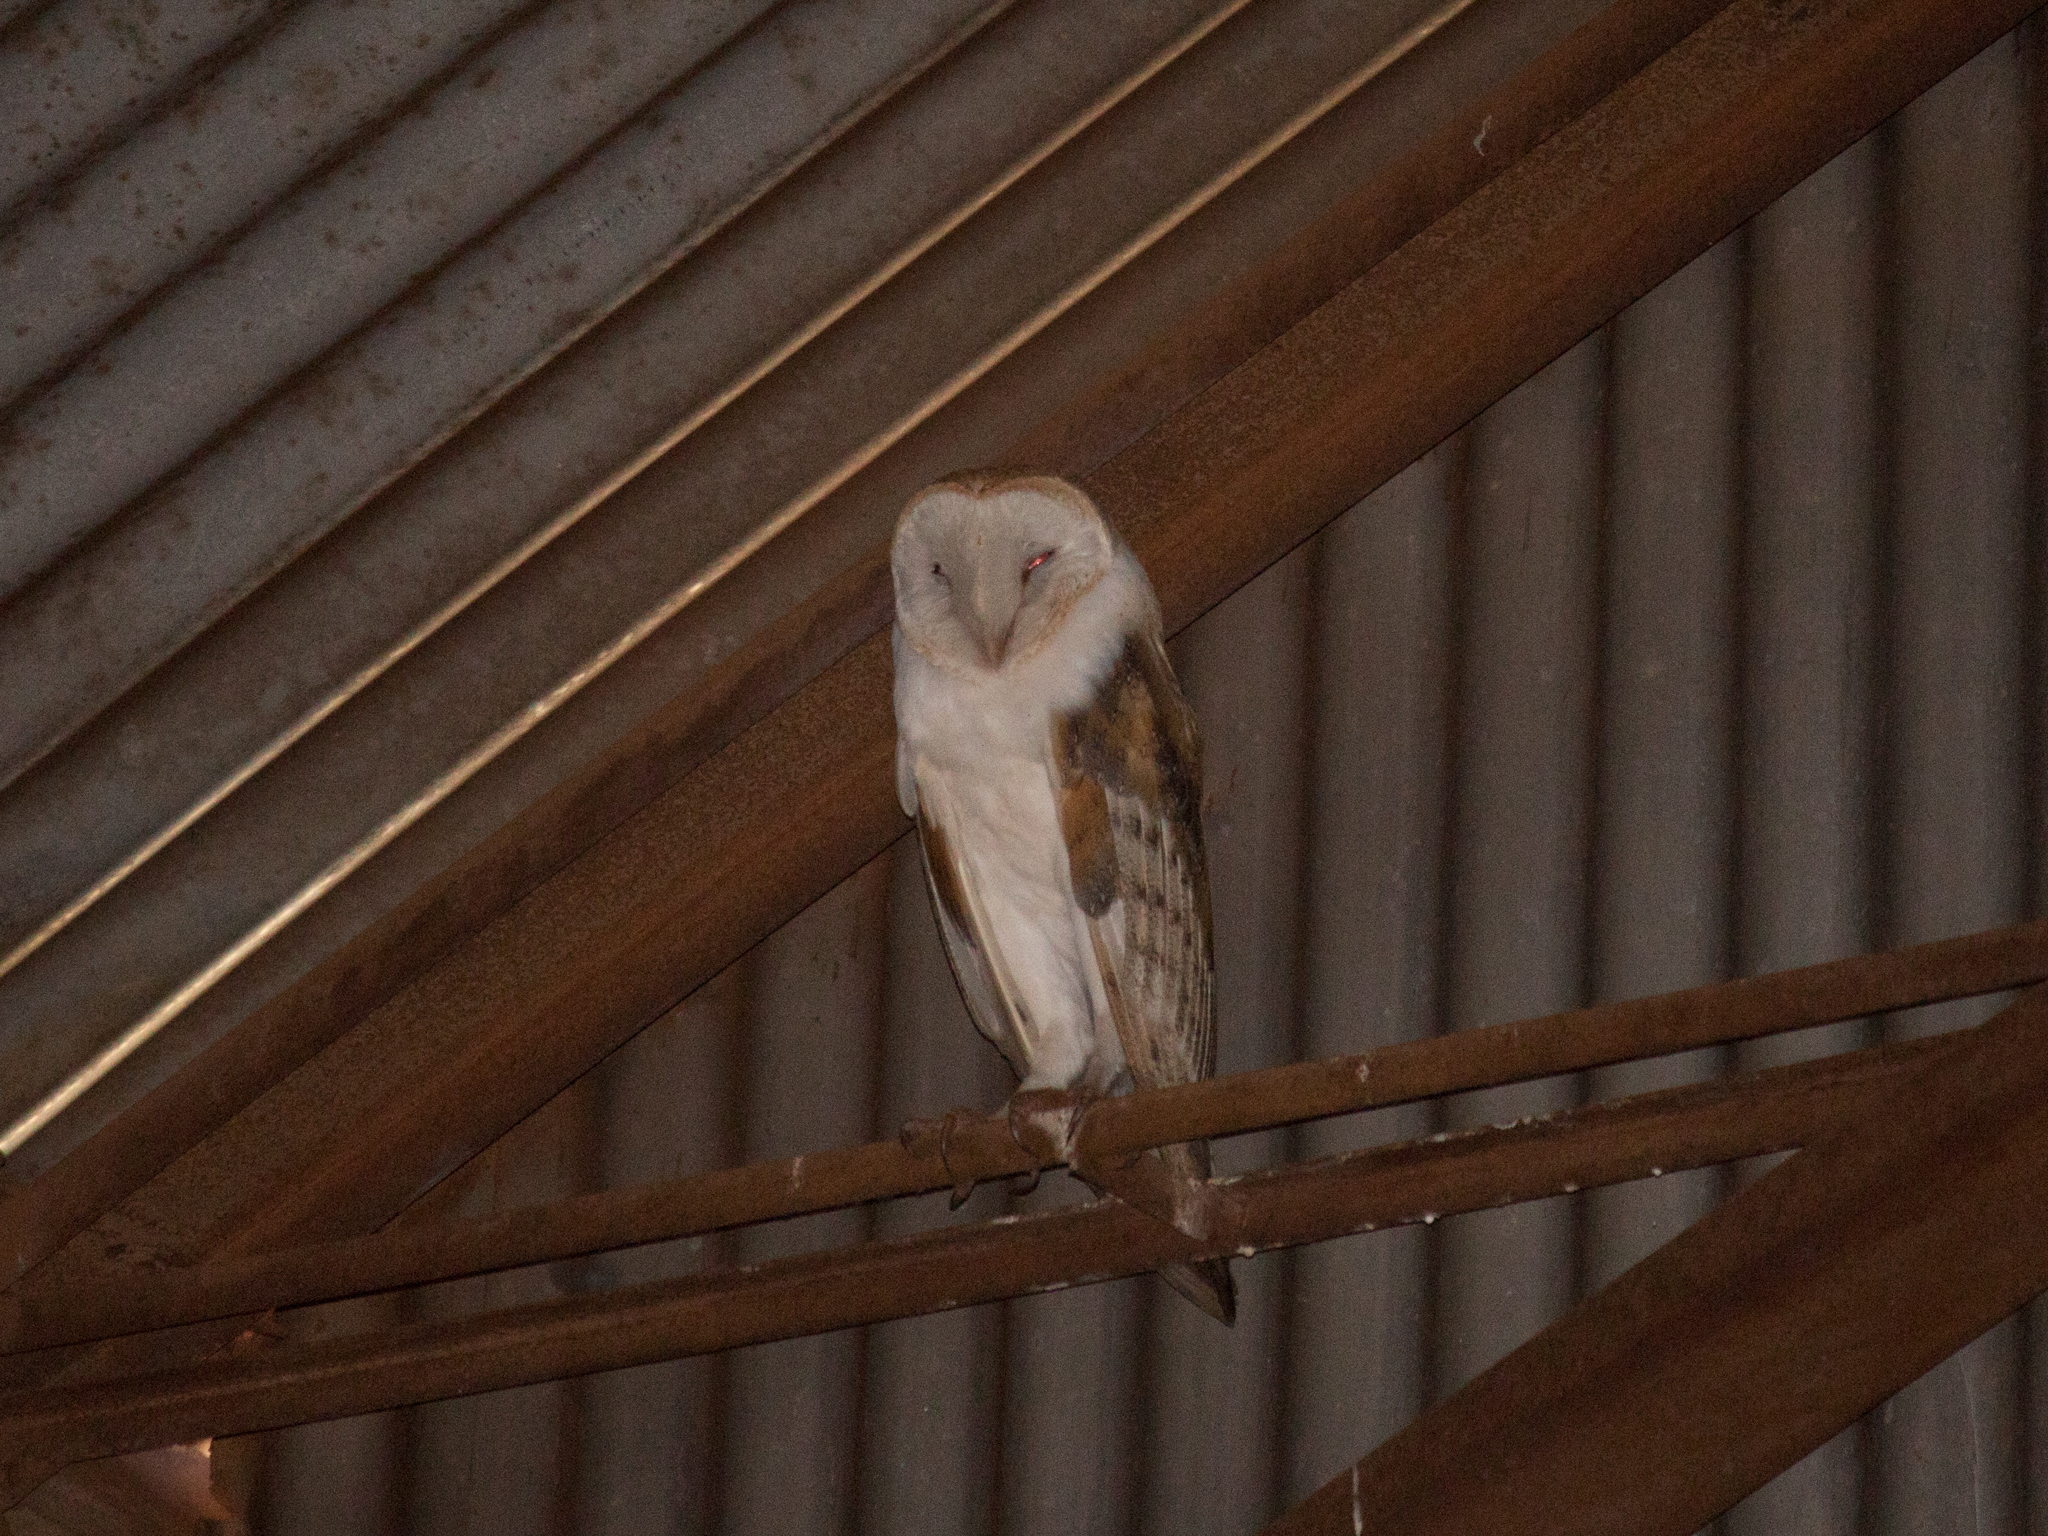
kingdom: Animalia
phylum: Chordata
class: Aves
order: Strigiformes
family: Tytonidae
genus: Tyto
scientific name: Tyto alba
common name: Barn owl
